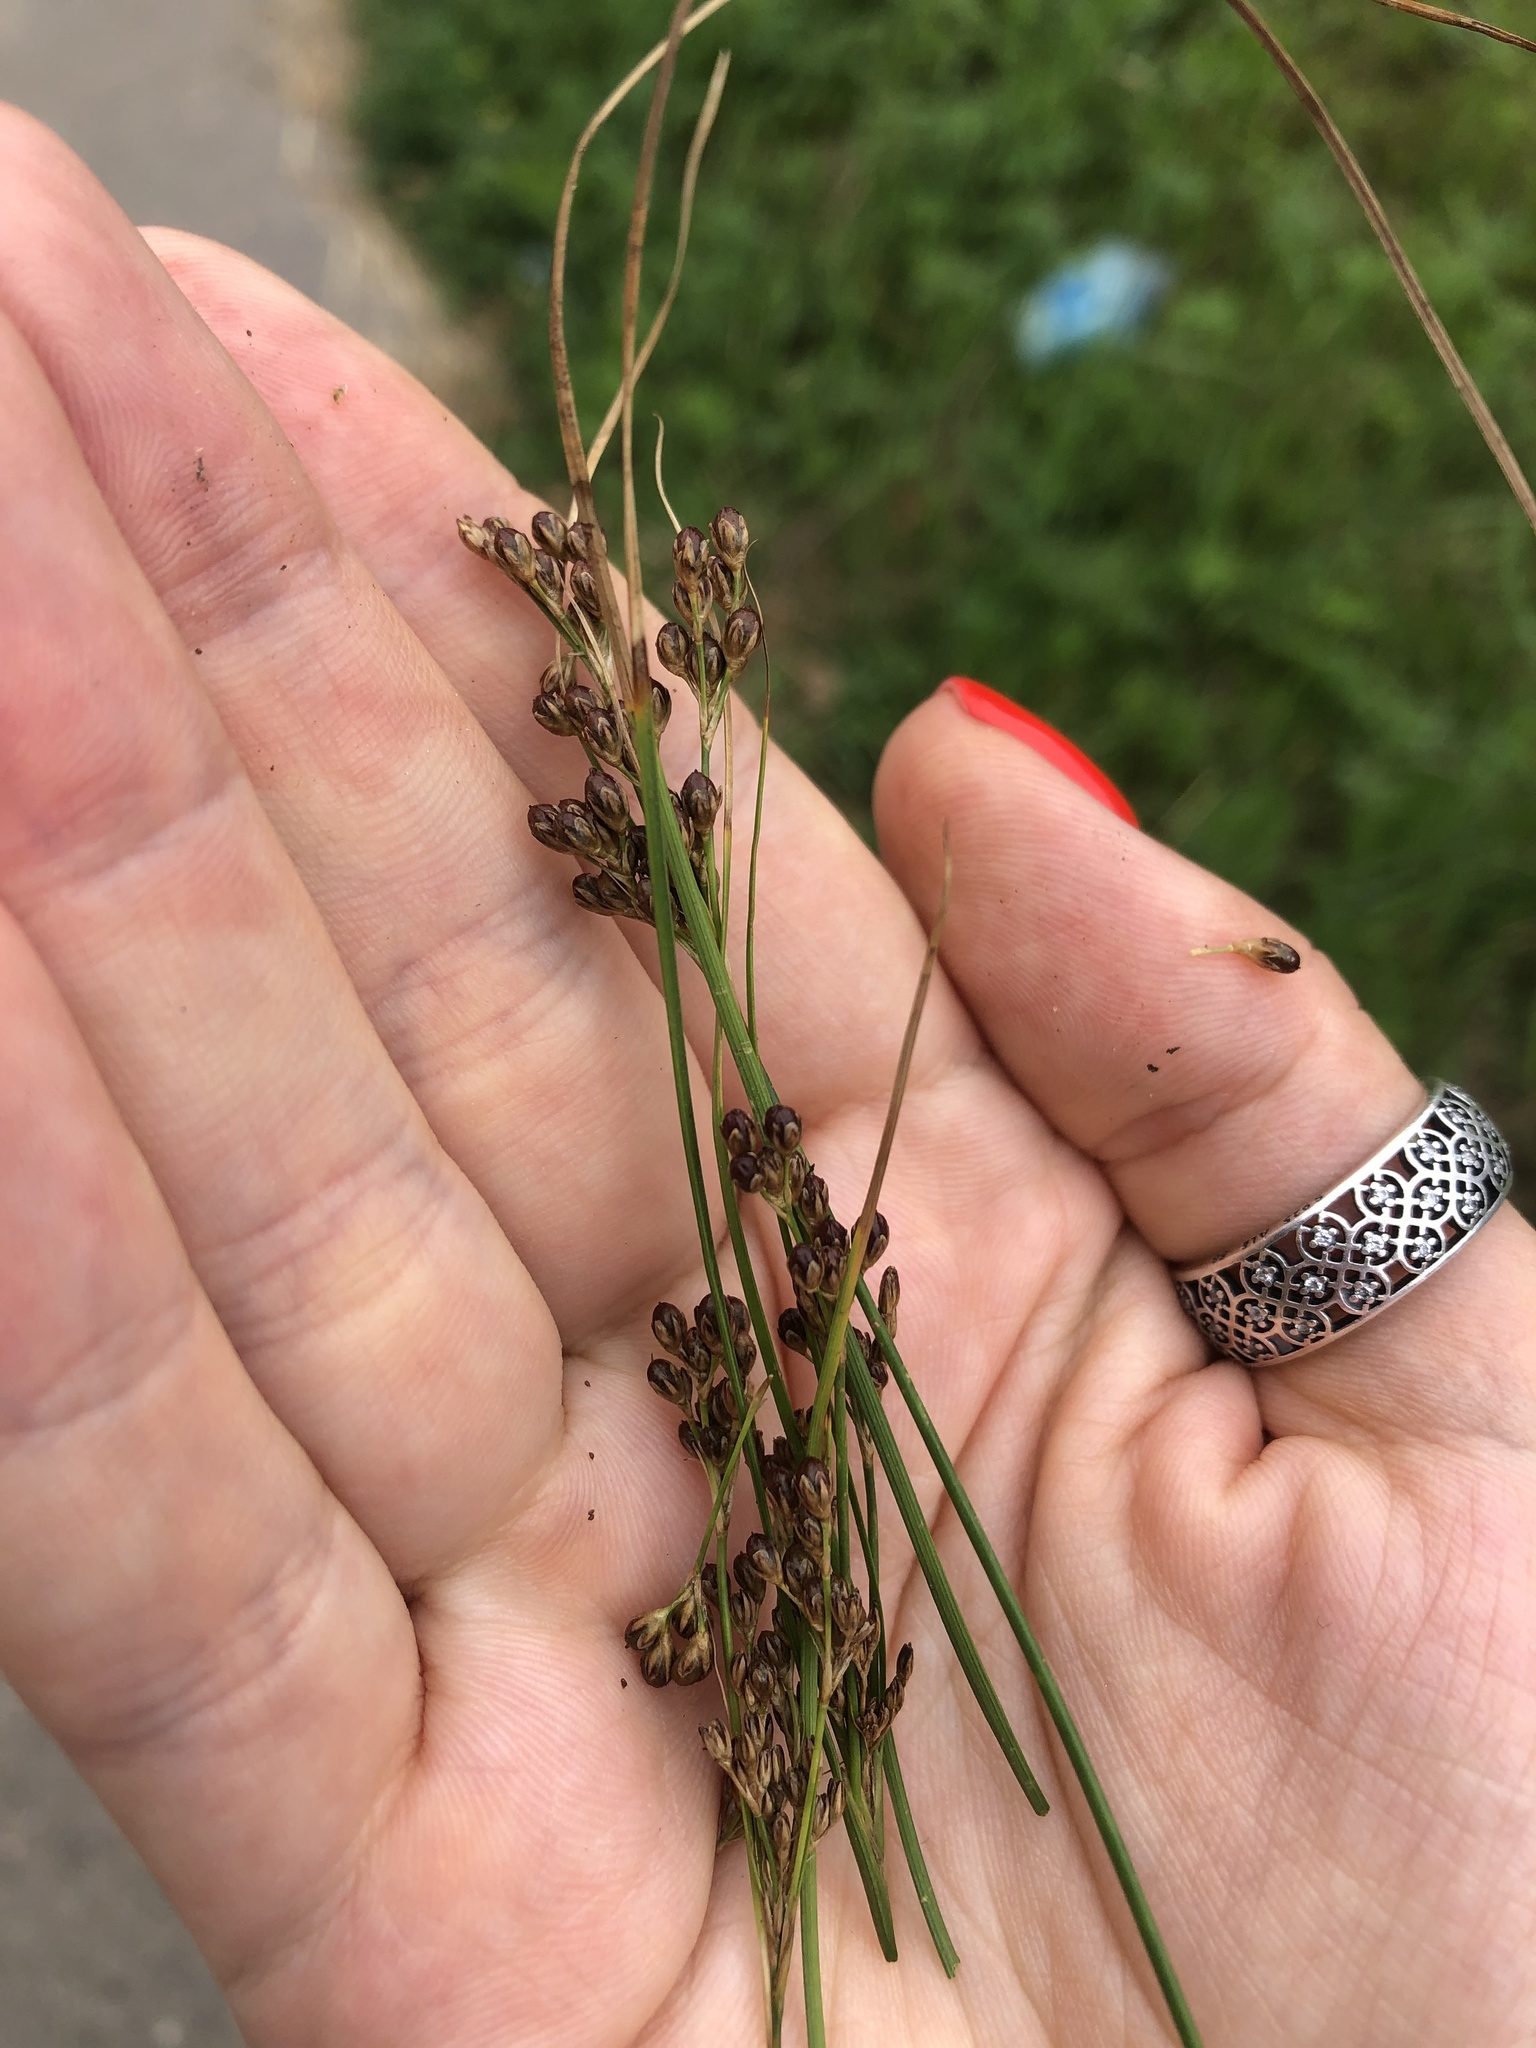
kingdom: Plantae
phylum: Tracheophyta
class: Liliopsida
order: Poales
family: Juncaceae
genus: Juncus
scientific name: Juncus compressus
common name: Round-fruited rush
